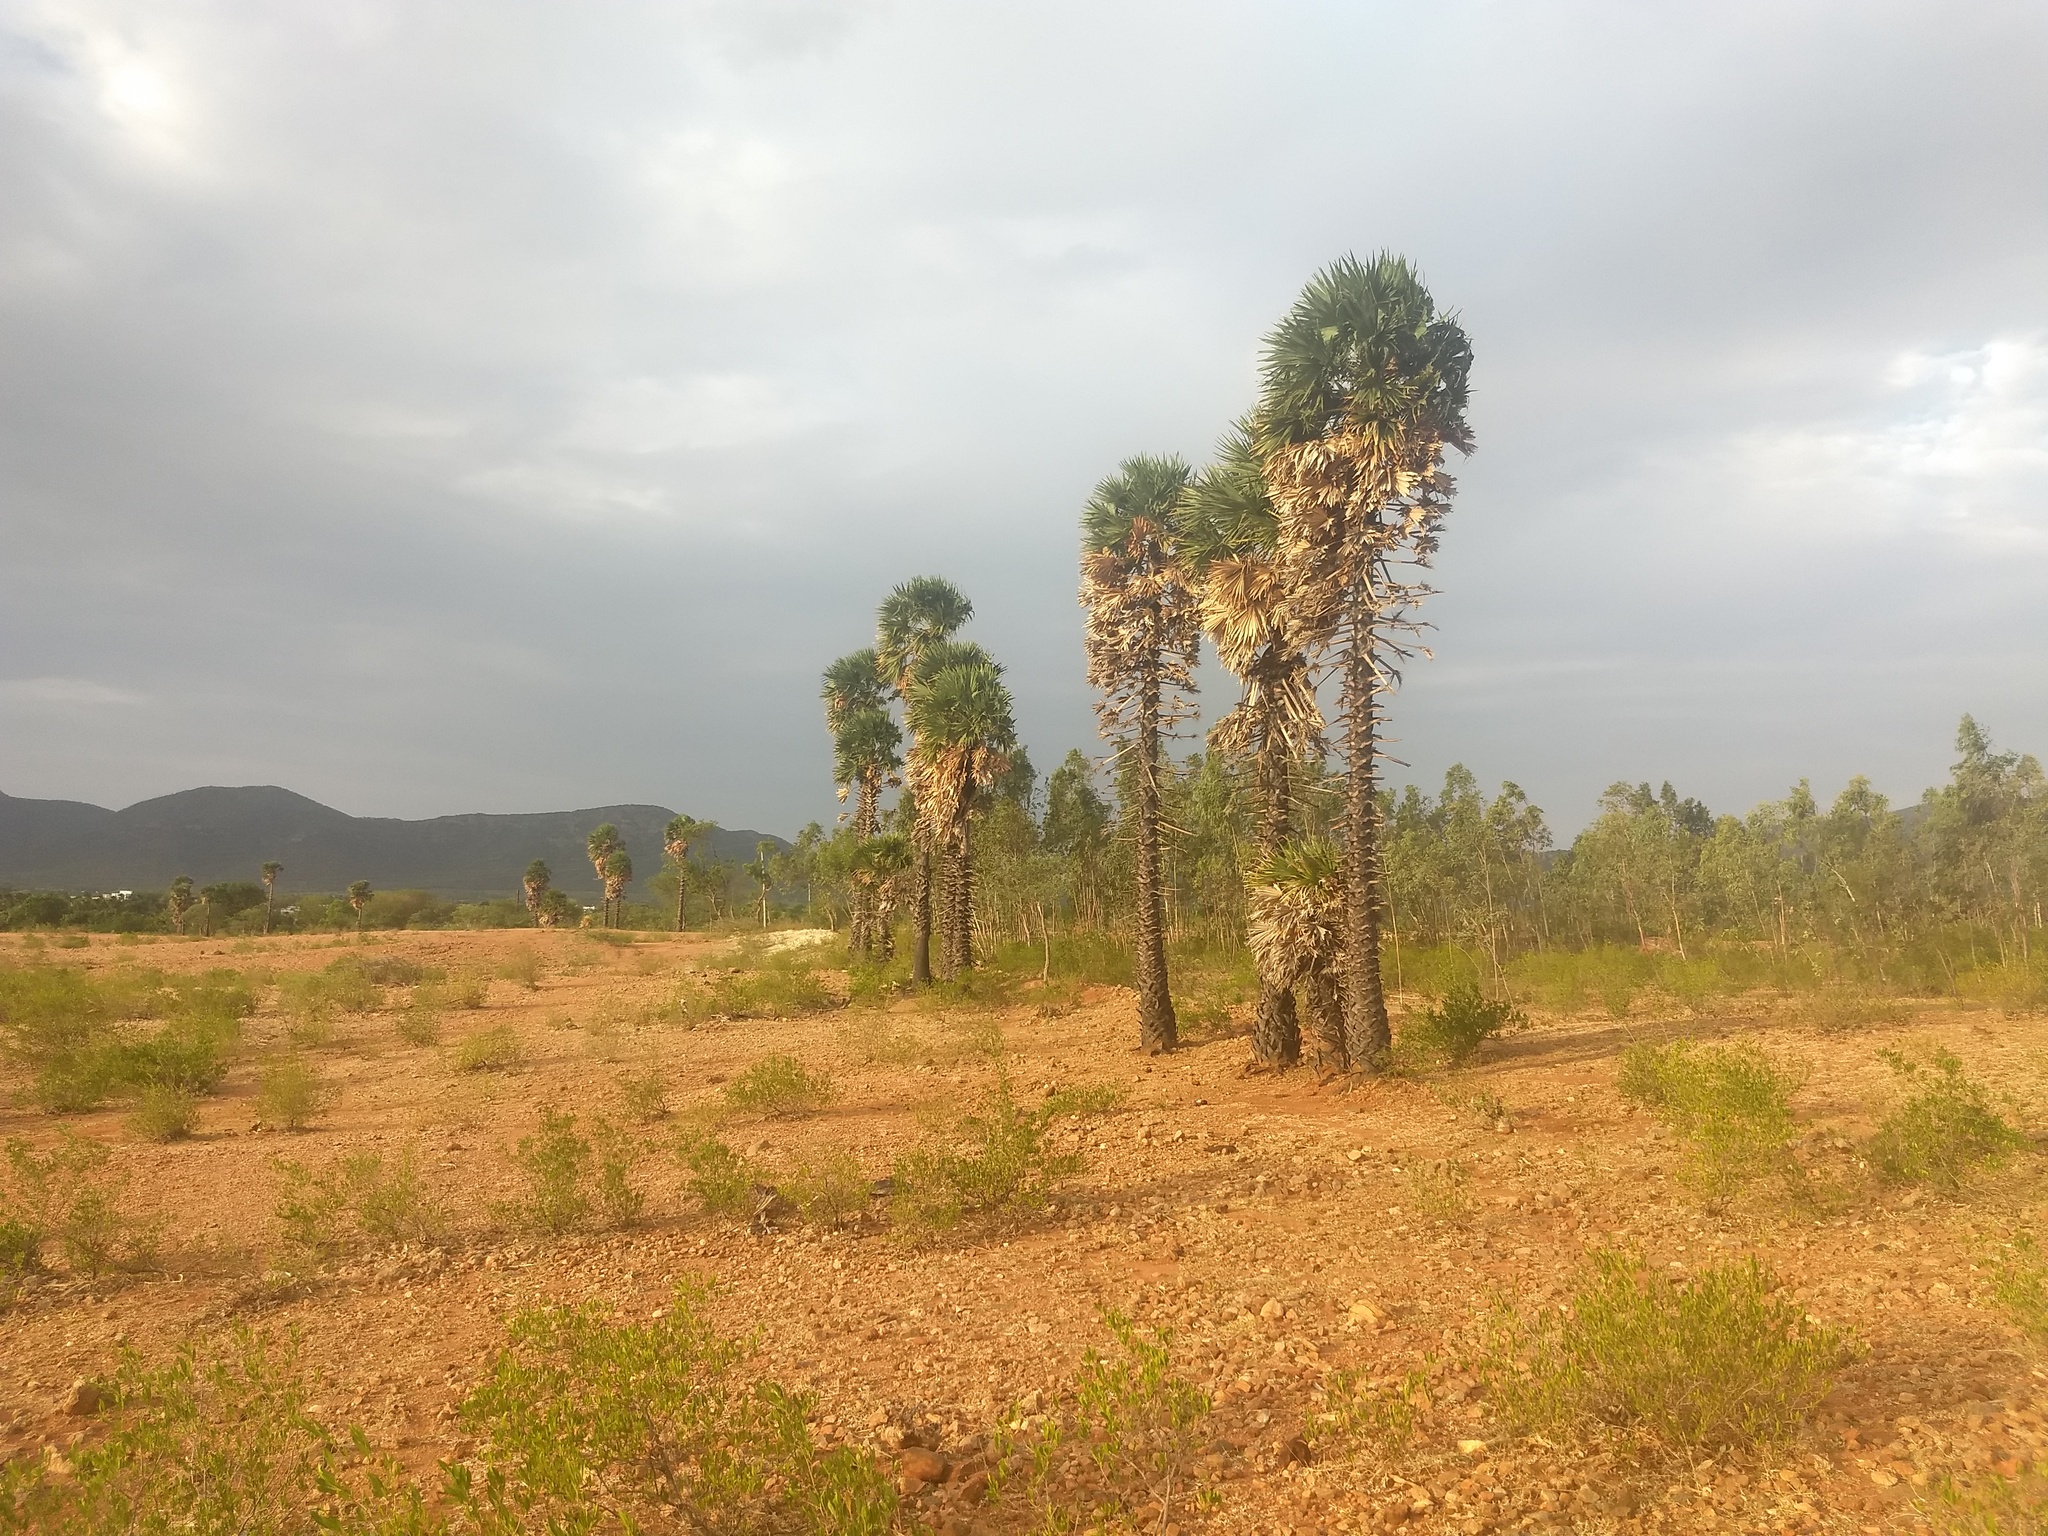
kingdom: Plantae
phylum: Tracheophyta
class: Liliopsida
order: Arecales
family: Arecaceae
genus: Borassus
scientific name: Borassus flabellifer
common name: Palmyra palm
